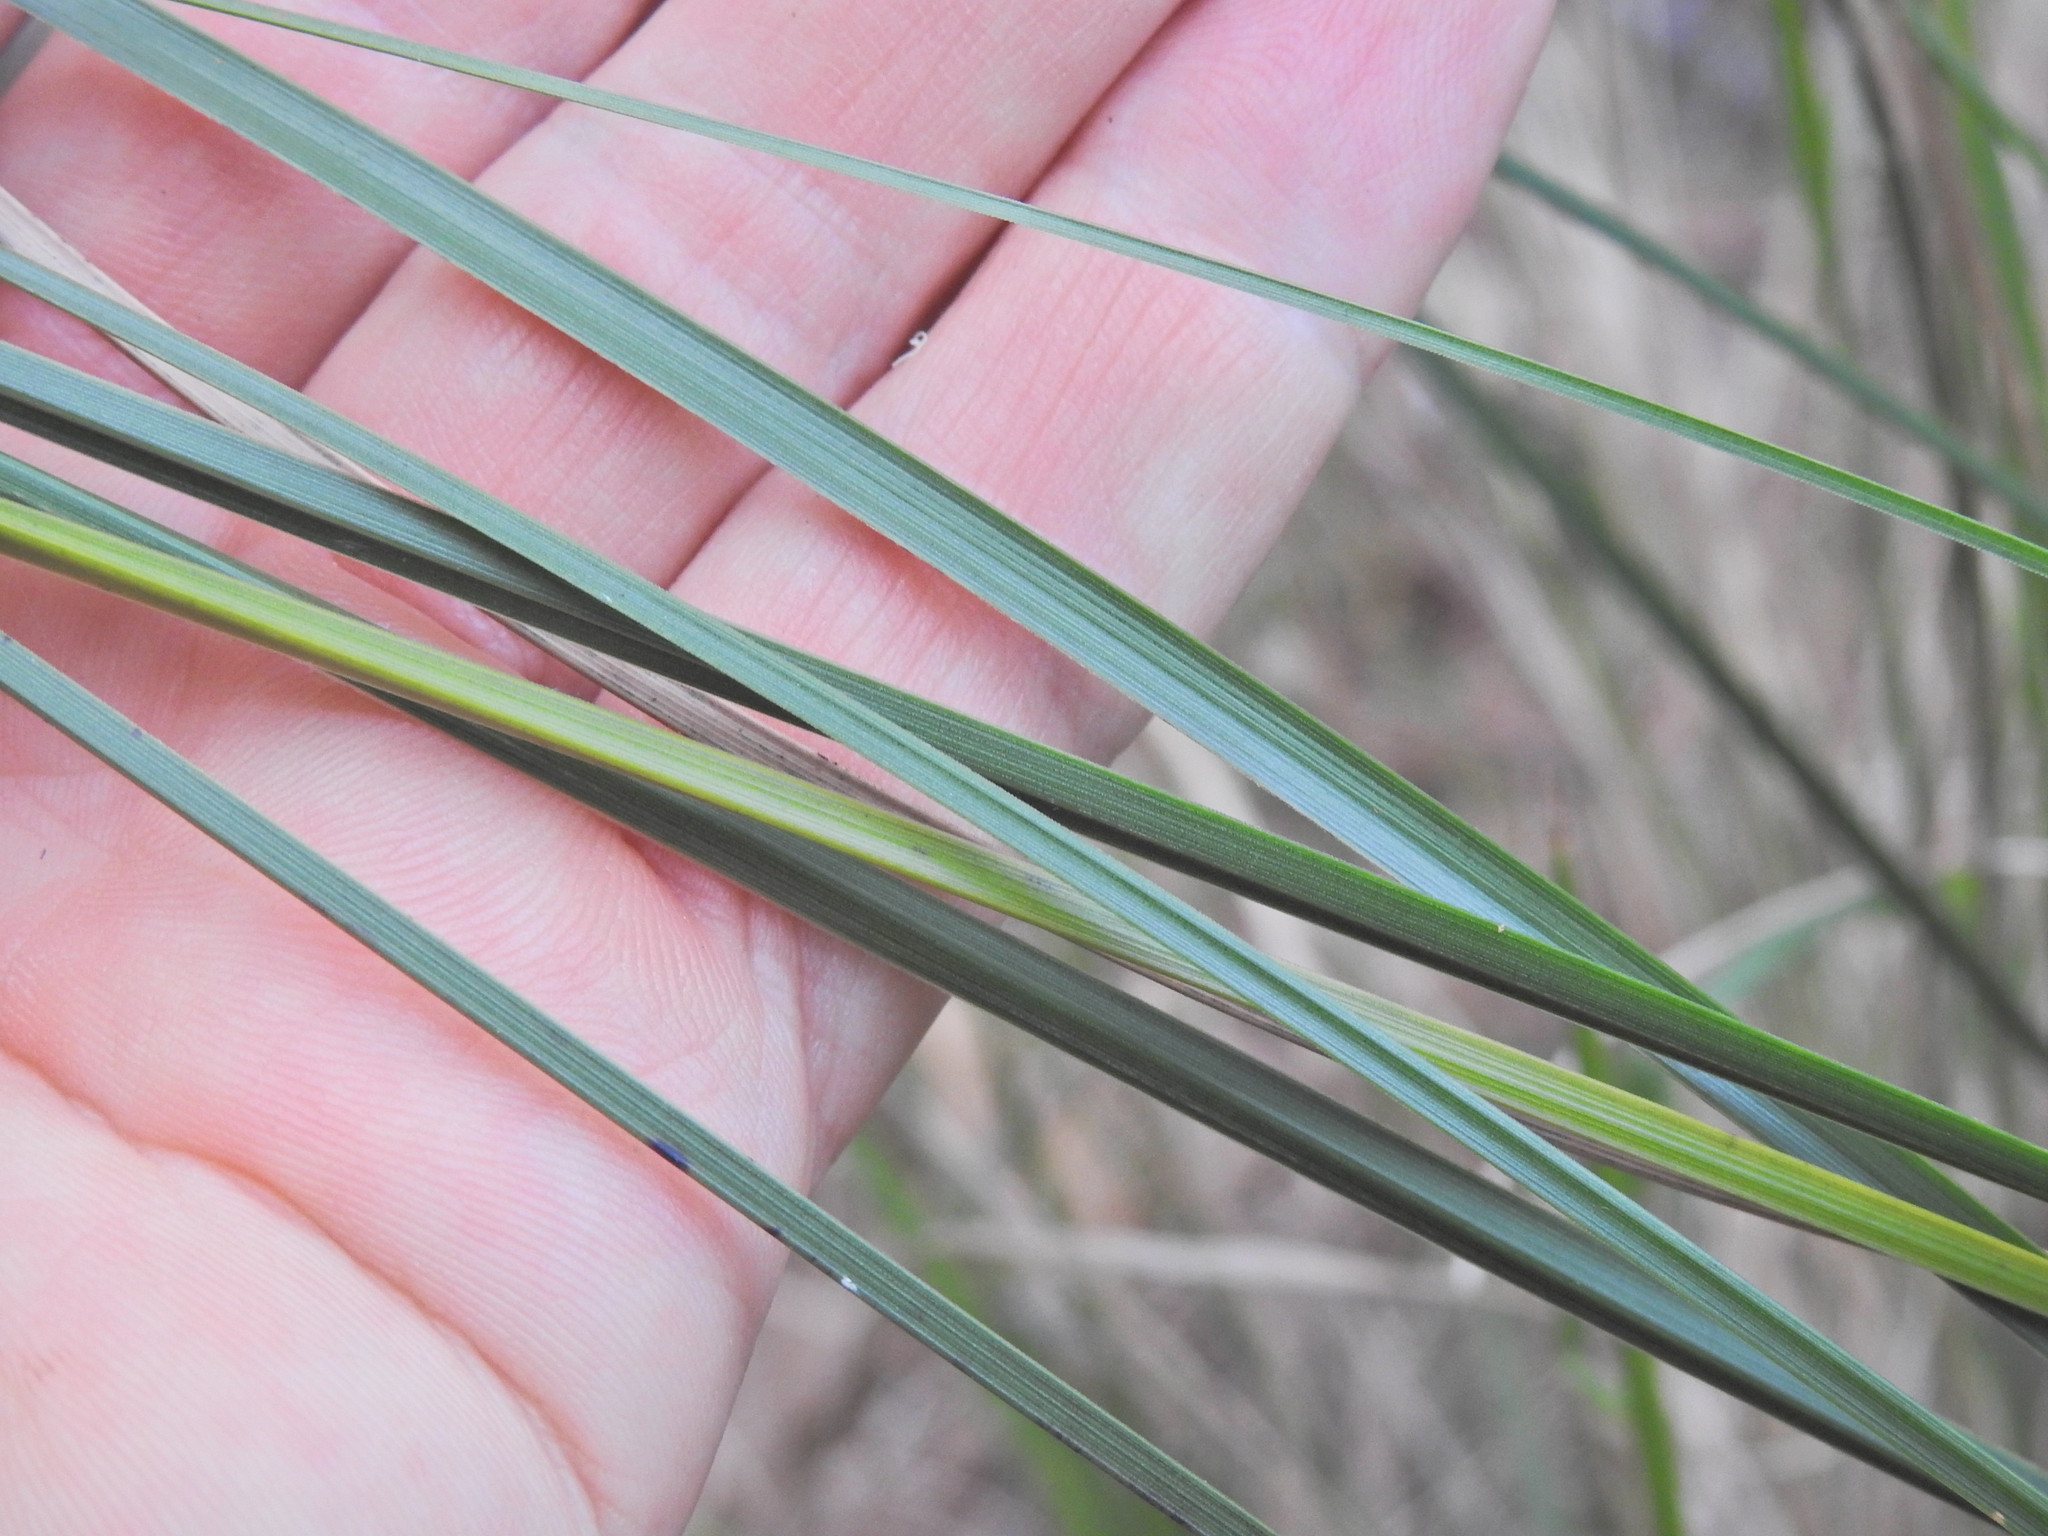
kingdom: Plantae
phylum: Tracheophyta
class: Liliopsida
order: Asparagales
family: Asphodelaceae
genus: Xanthorrhoea
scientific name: Xanthorrhoea latifolia
